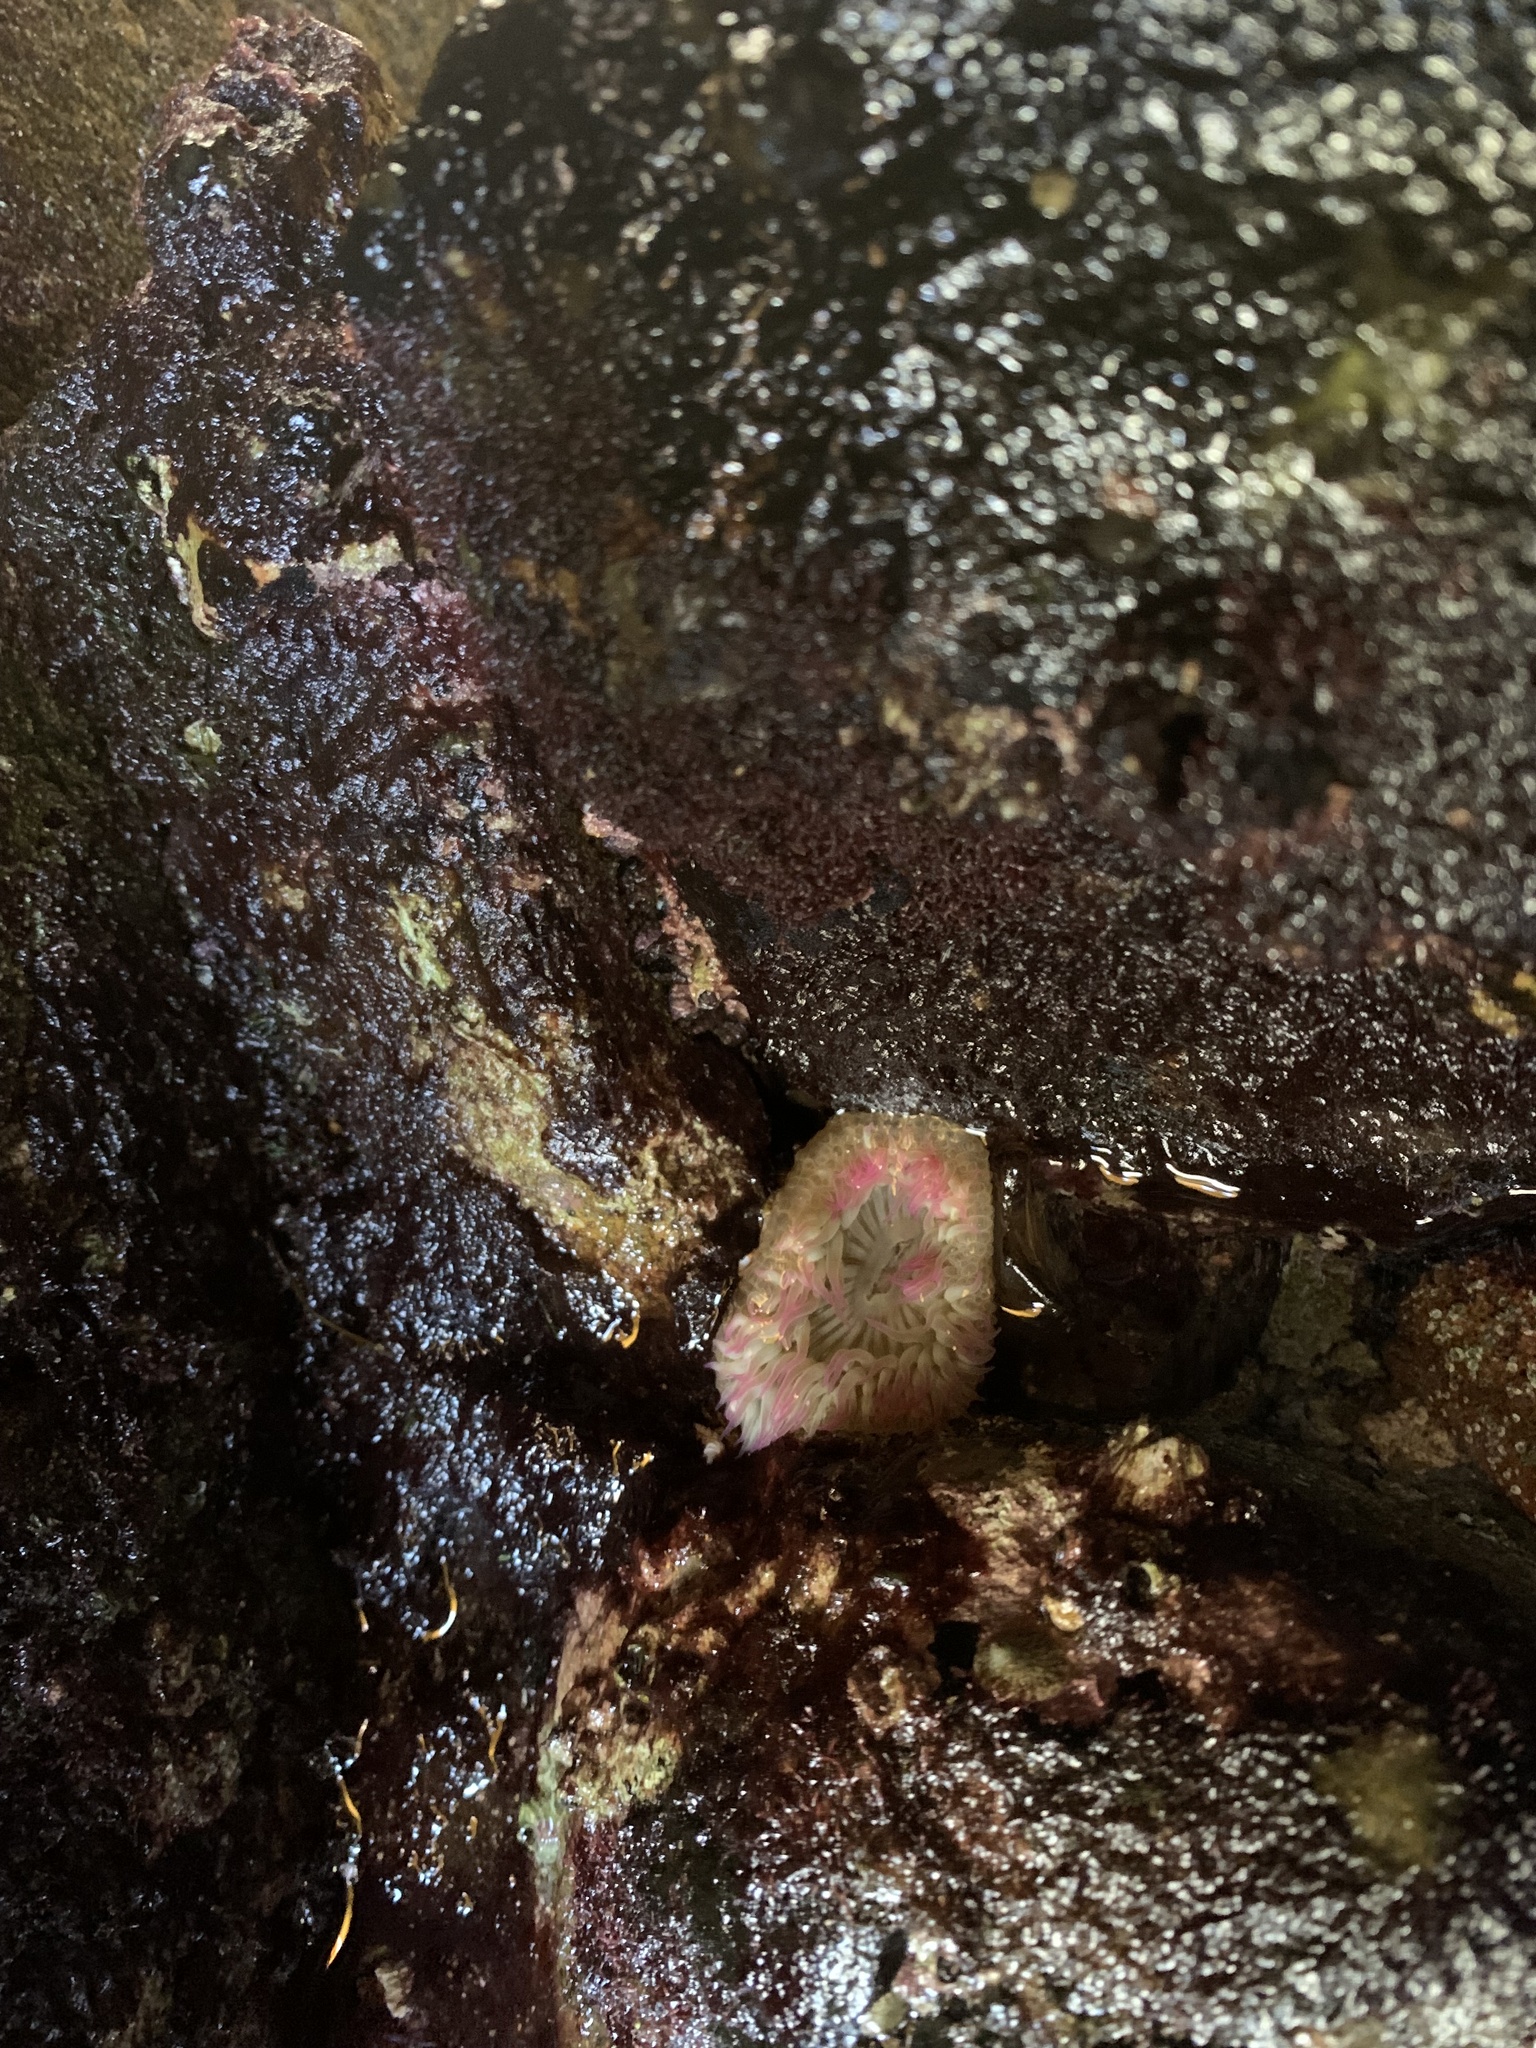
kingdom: Animalia
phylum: Cnidaria
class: Anthozoa
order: Actiniaria
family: Actiniidae
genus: Anthopleura
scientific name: Anthopleura sola
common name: Sun anemone
